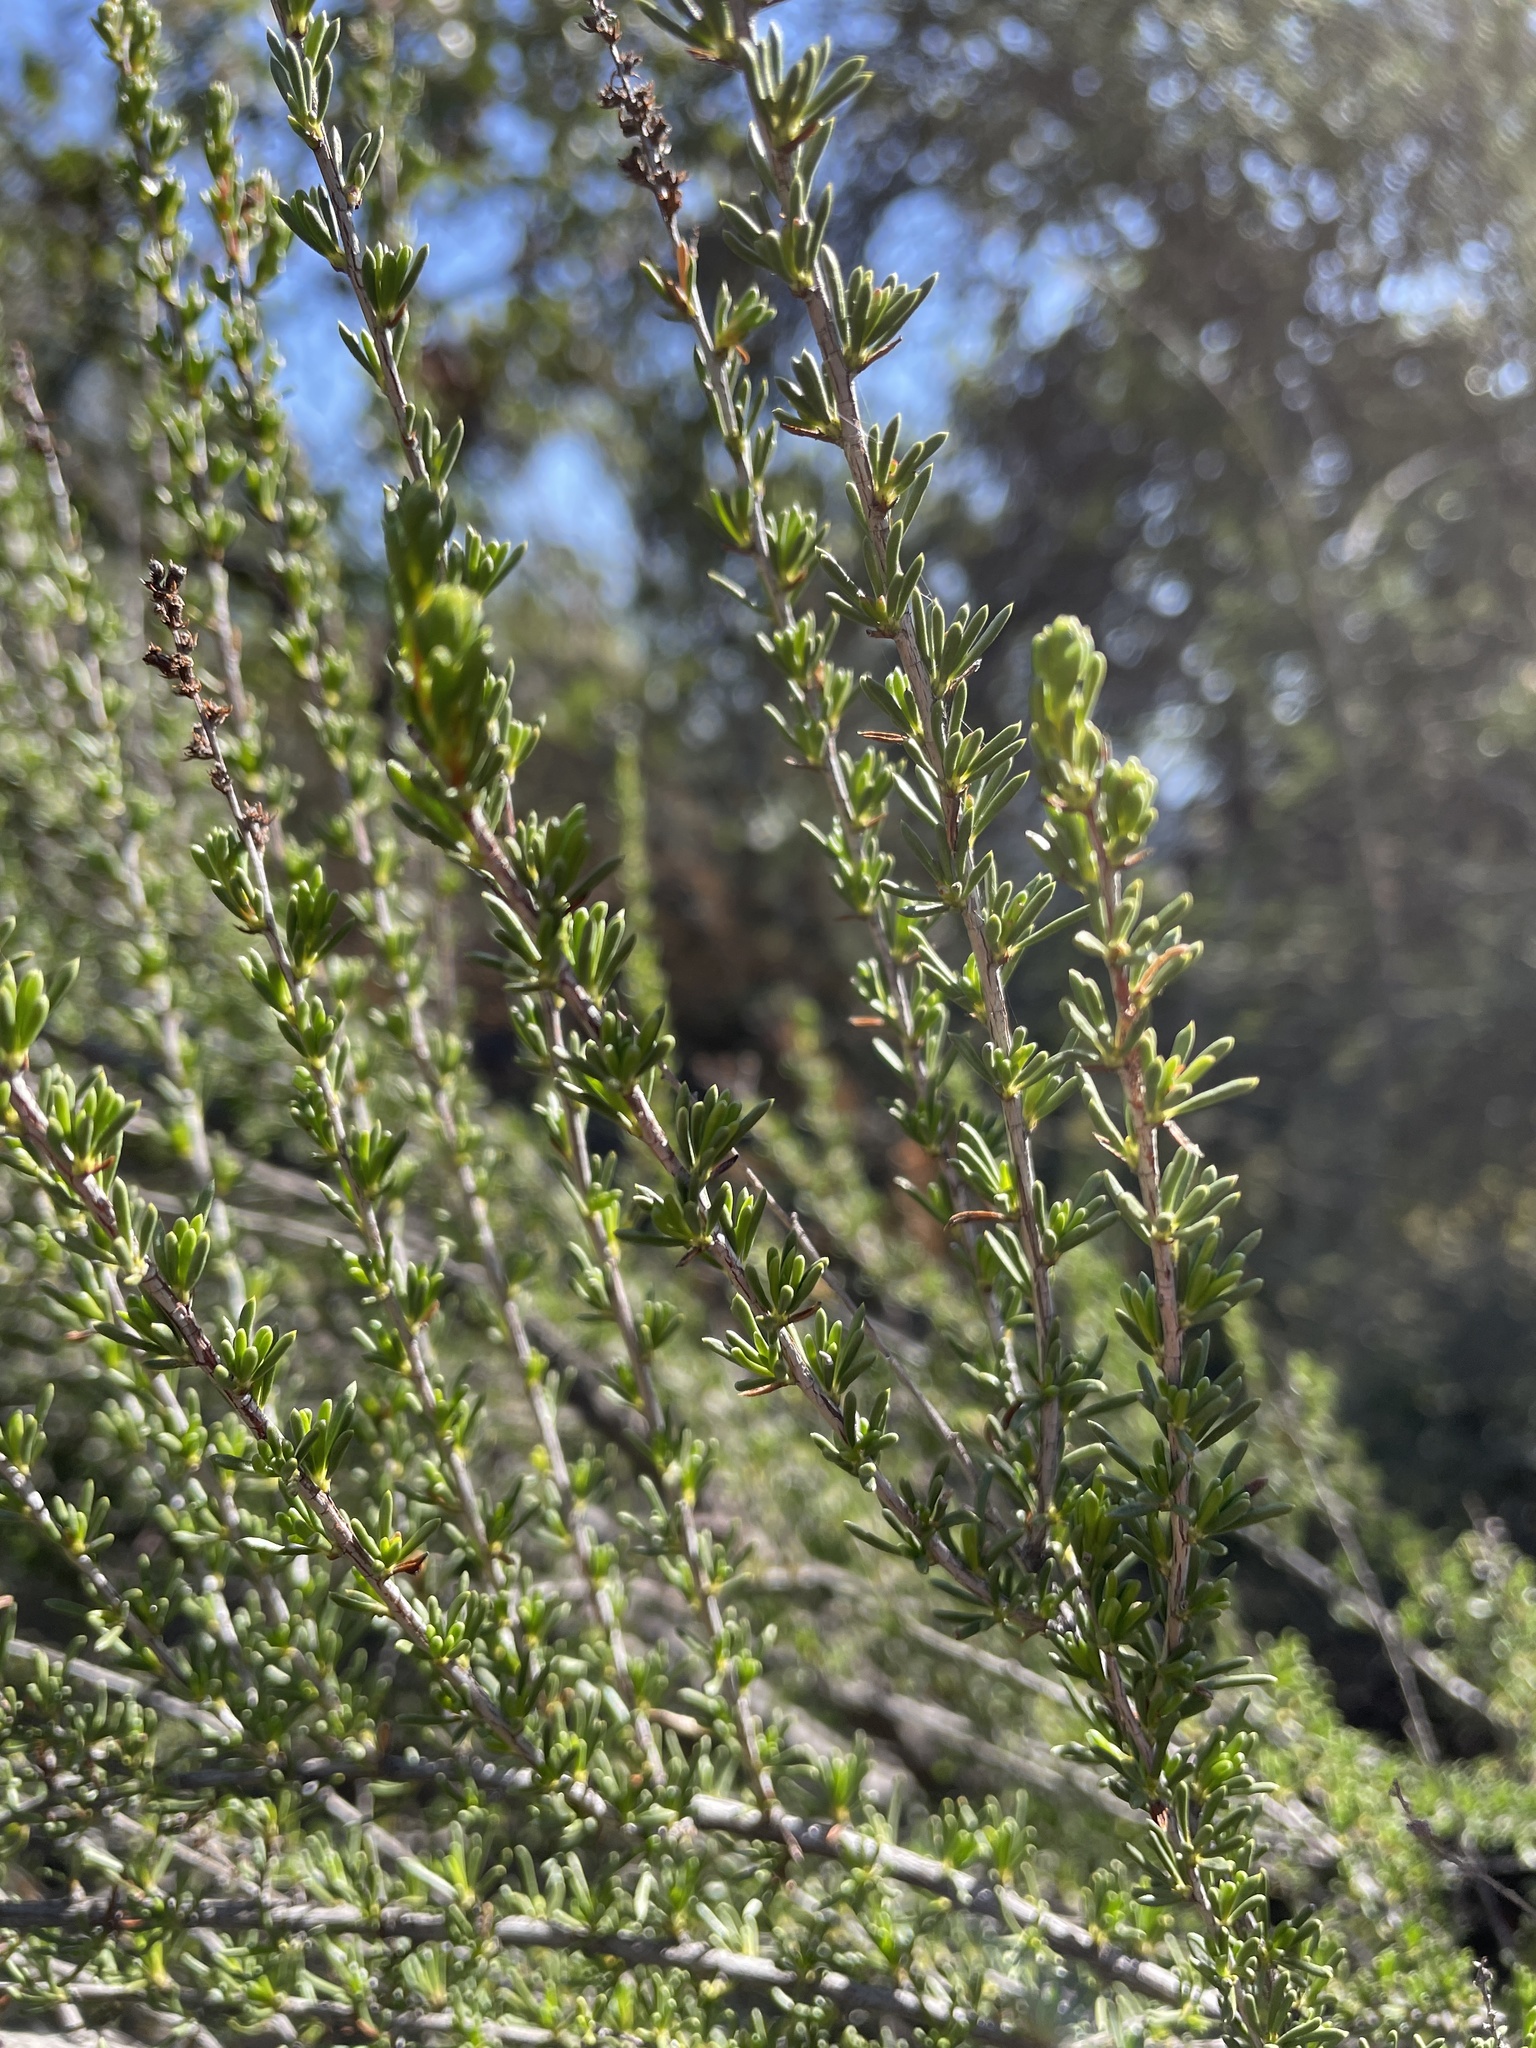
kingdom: Plantae
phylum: Tracheophyta
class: Magnoliopsida
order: Rosales
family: Rosaceae
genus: Adenostoma
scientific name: Adenostoma fasciculatum
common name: Chamise
